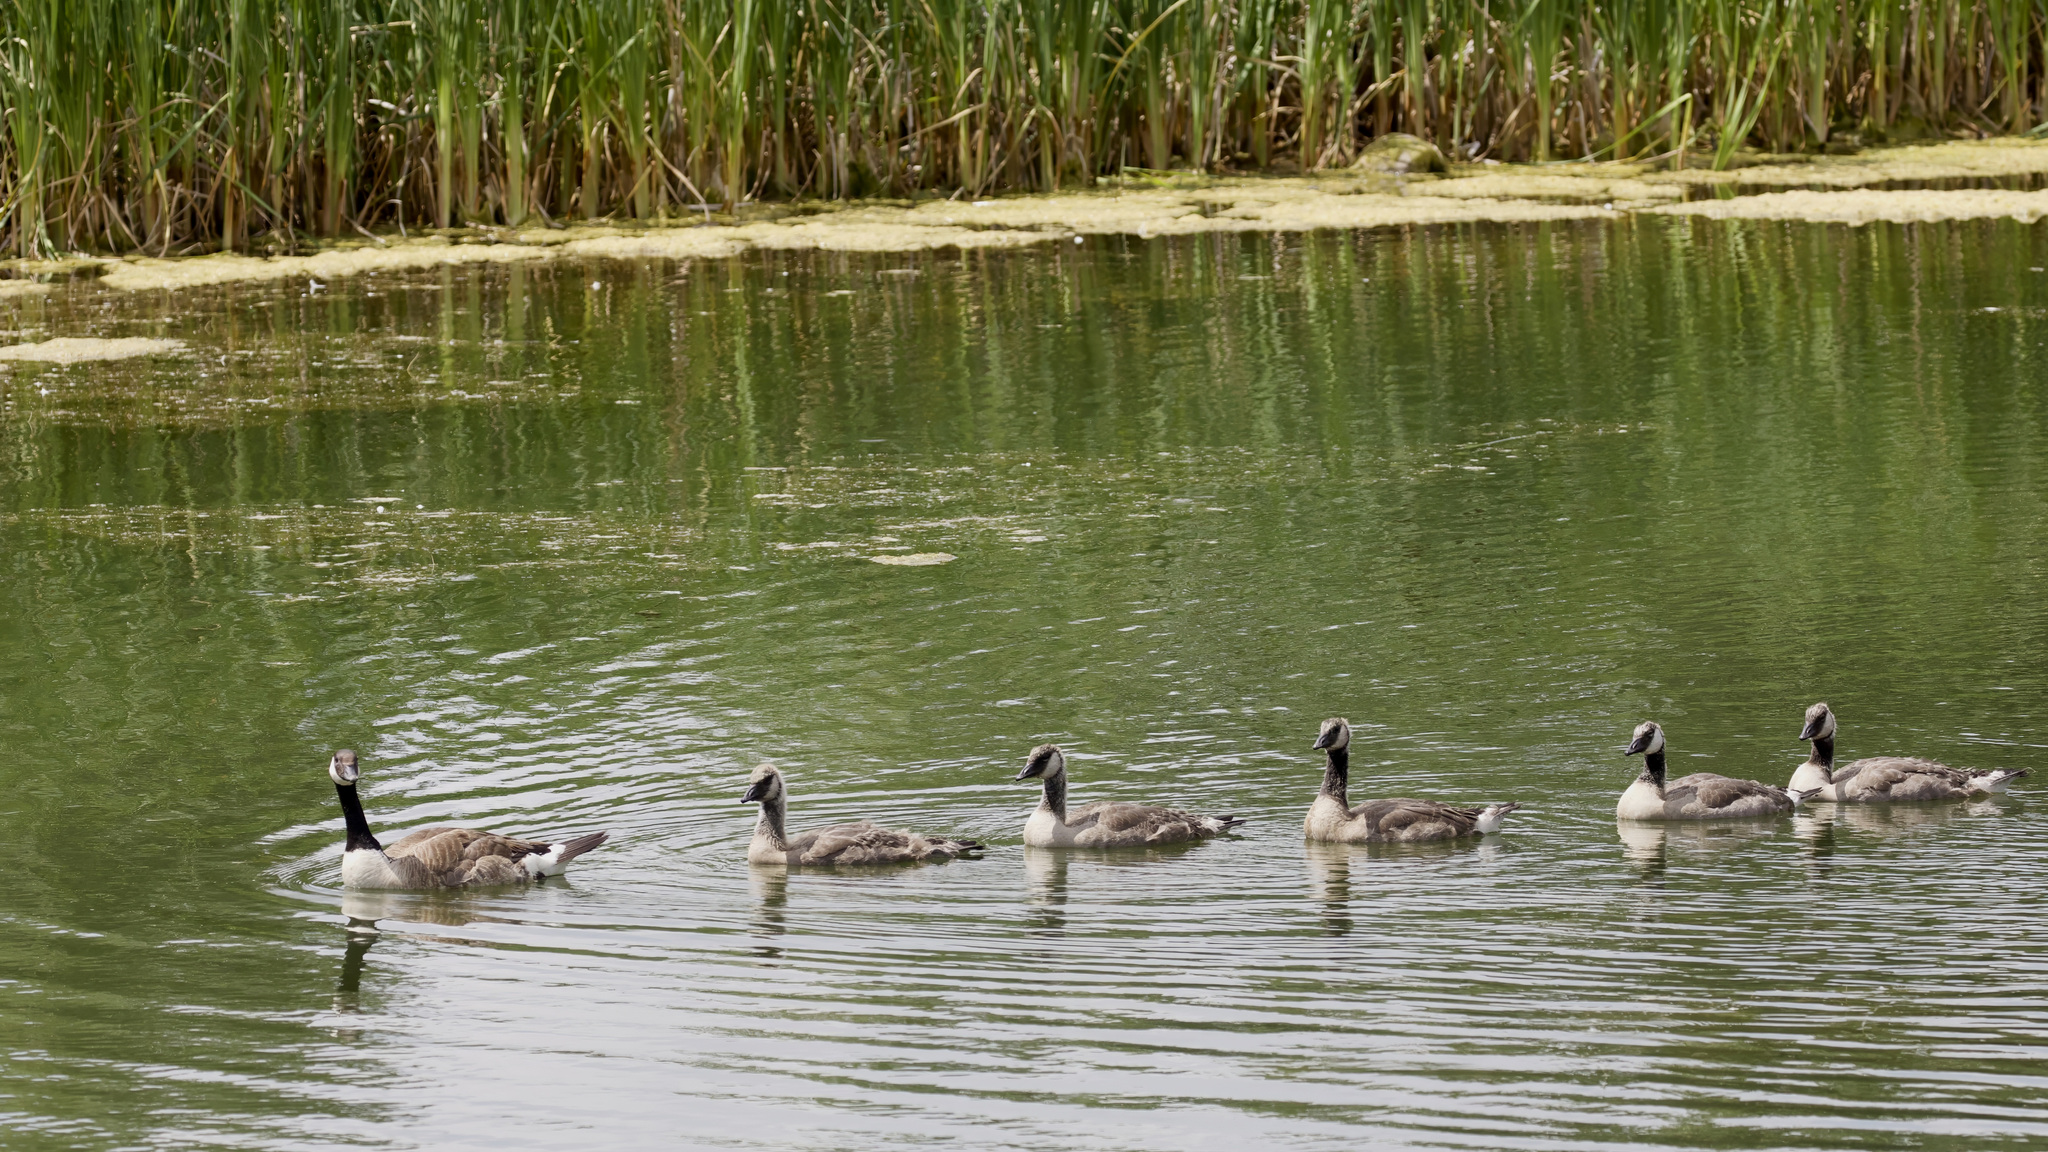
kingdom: Animalia
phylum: Chordata
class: Aves
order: Anseriformes
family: Anatidae
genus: Branta
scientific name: Branta canadensis
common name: Canada goose
